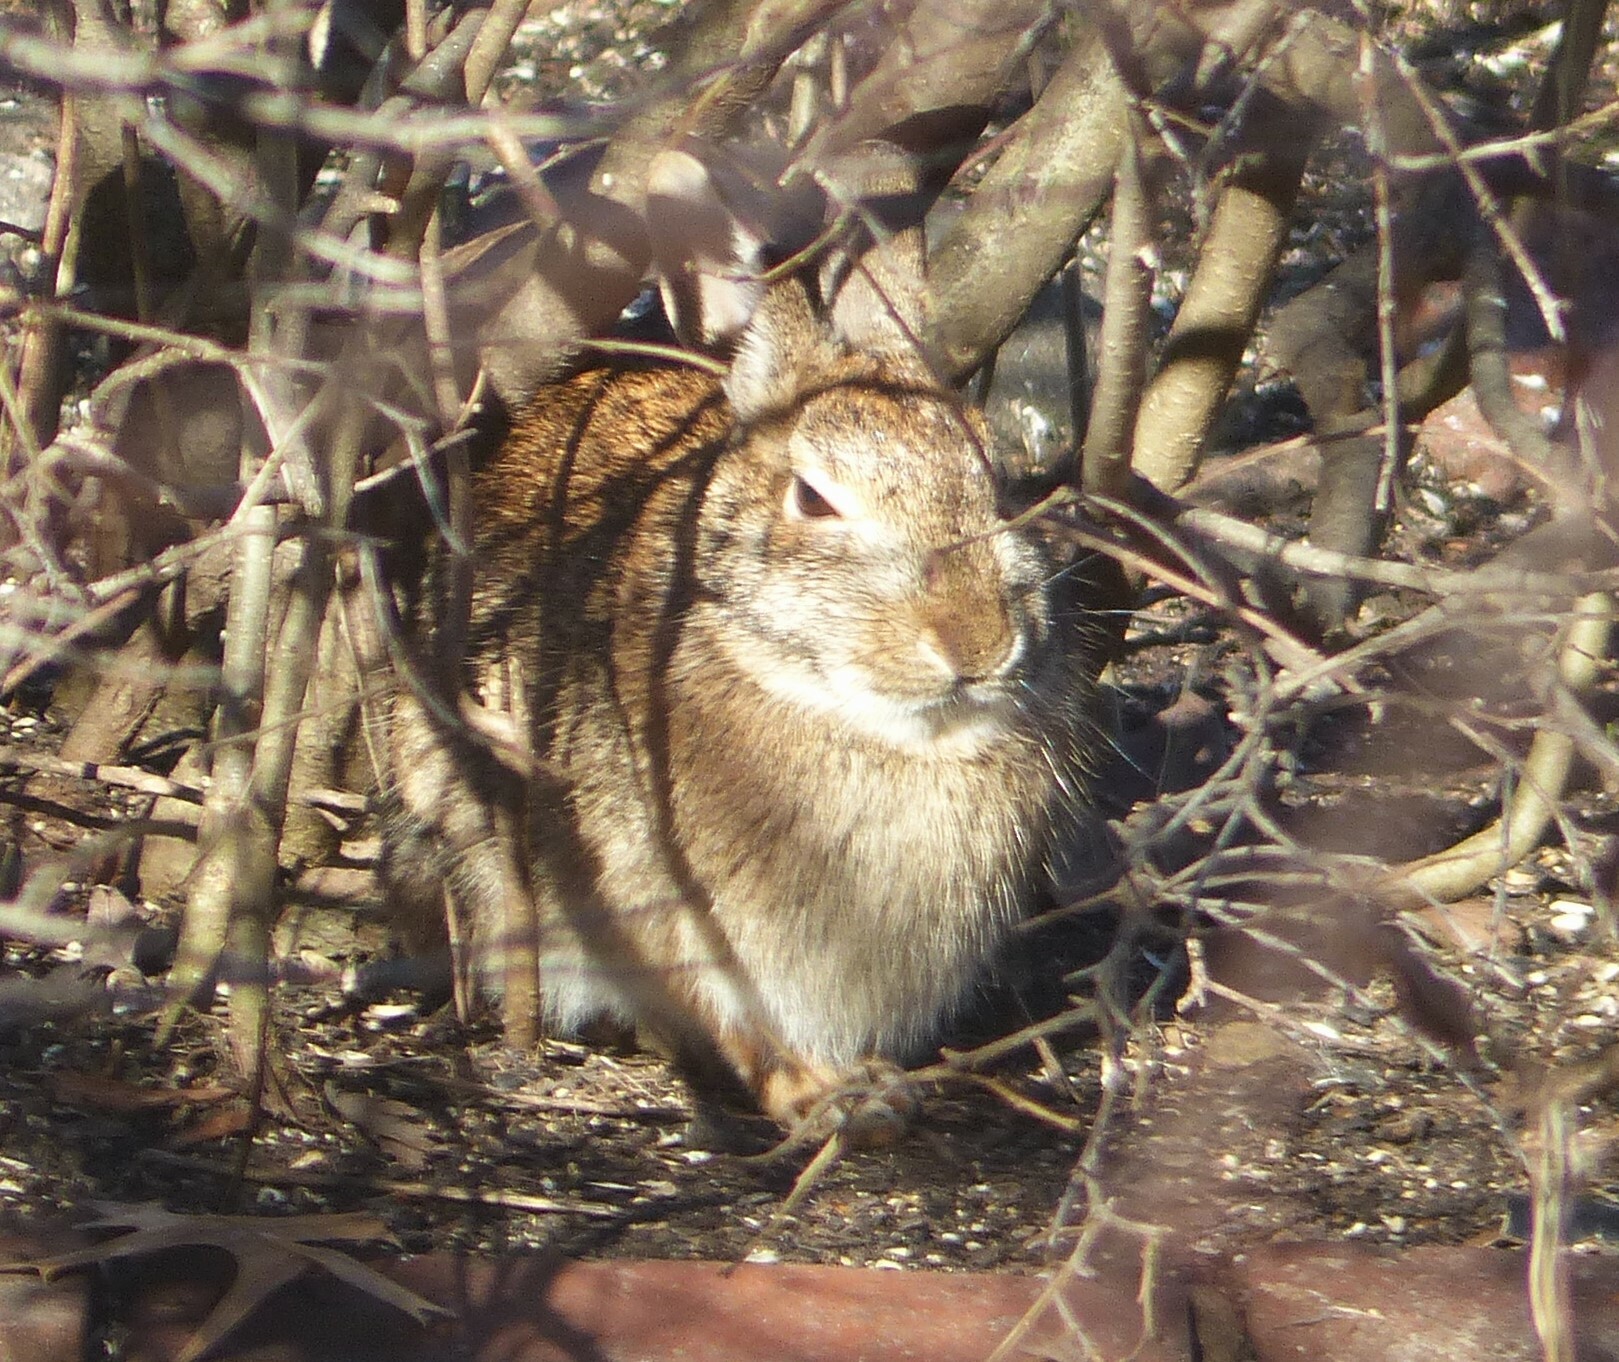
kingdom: Animalia
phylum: Chordata
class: Mammalia
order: Lagomorpha
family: Leporidae
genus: Sylvilagus
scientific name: Sylvilagus floridanus
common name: Eastern cottontail
